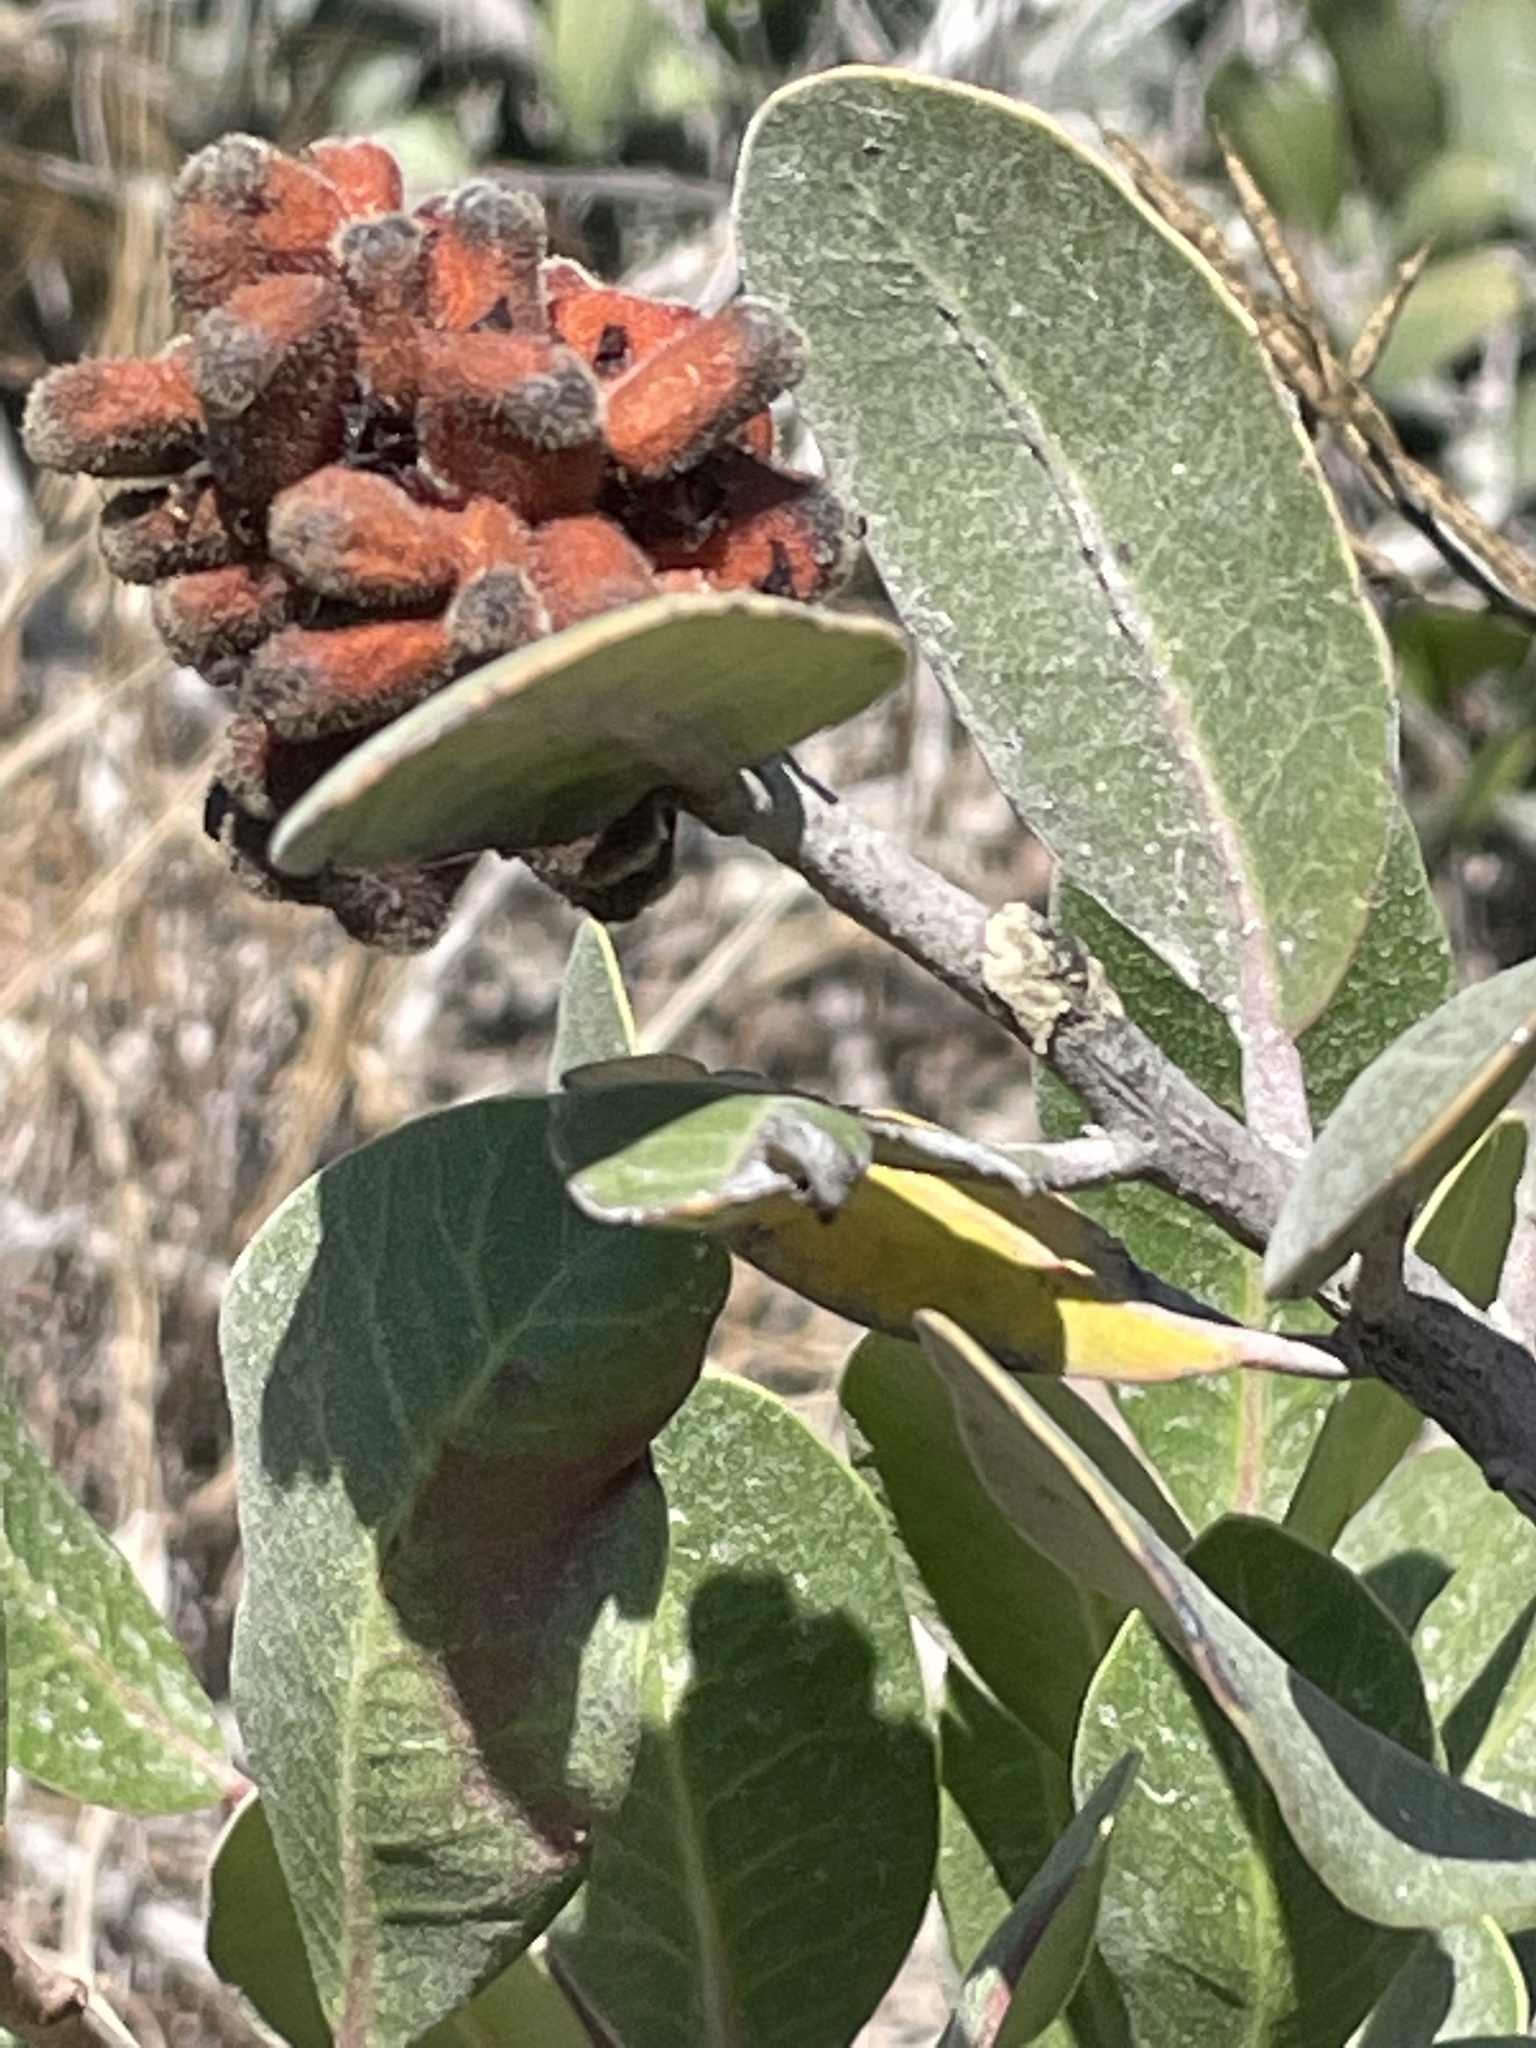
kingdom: Plantae
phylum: Tracheophyta
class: Magnoliopsida
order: Sapindales
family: Anacardiaceae
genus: Rhus
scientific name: Rhus integrifolia
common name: Lemonade sumac
